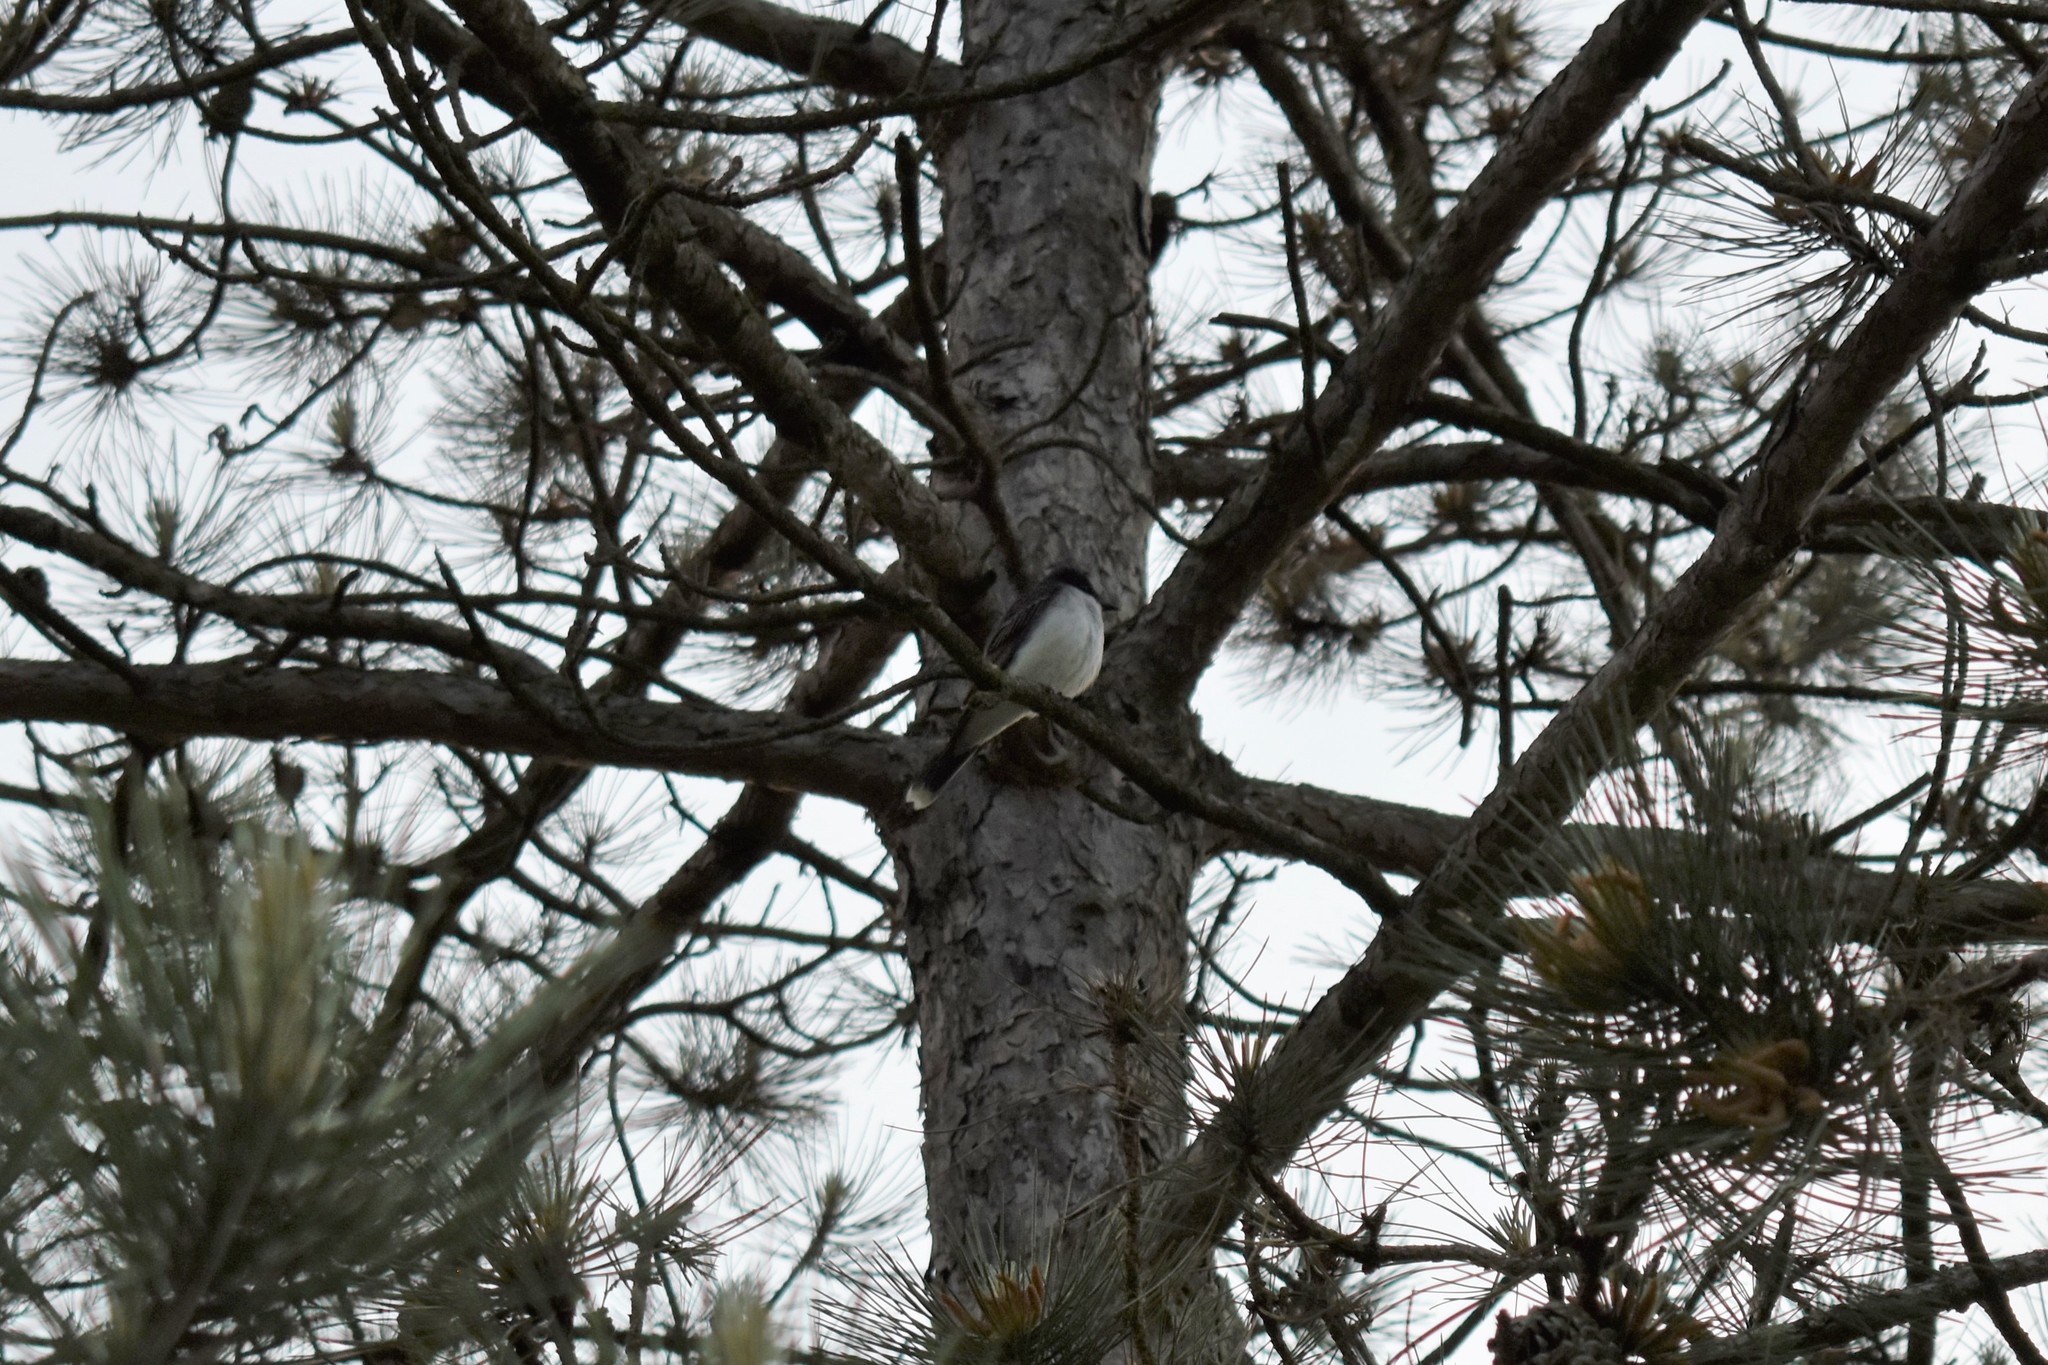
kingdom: Animalia
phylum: Chordata
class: Aves
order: Passeriformes
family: Tyrannidae
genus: Tyrannus
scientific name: Tyrannus tyrannus
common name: Eastern kingbird
